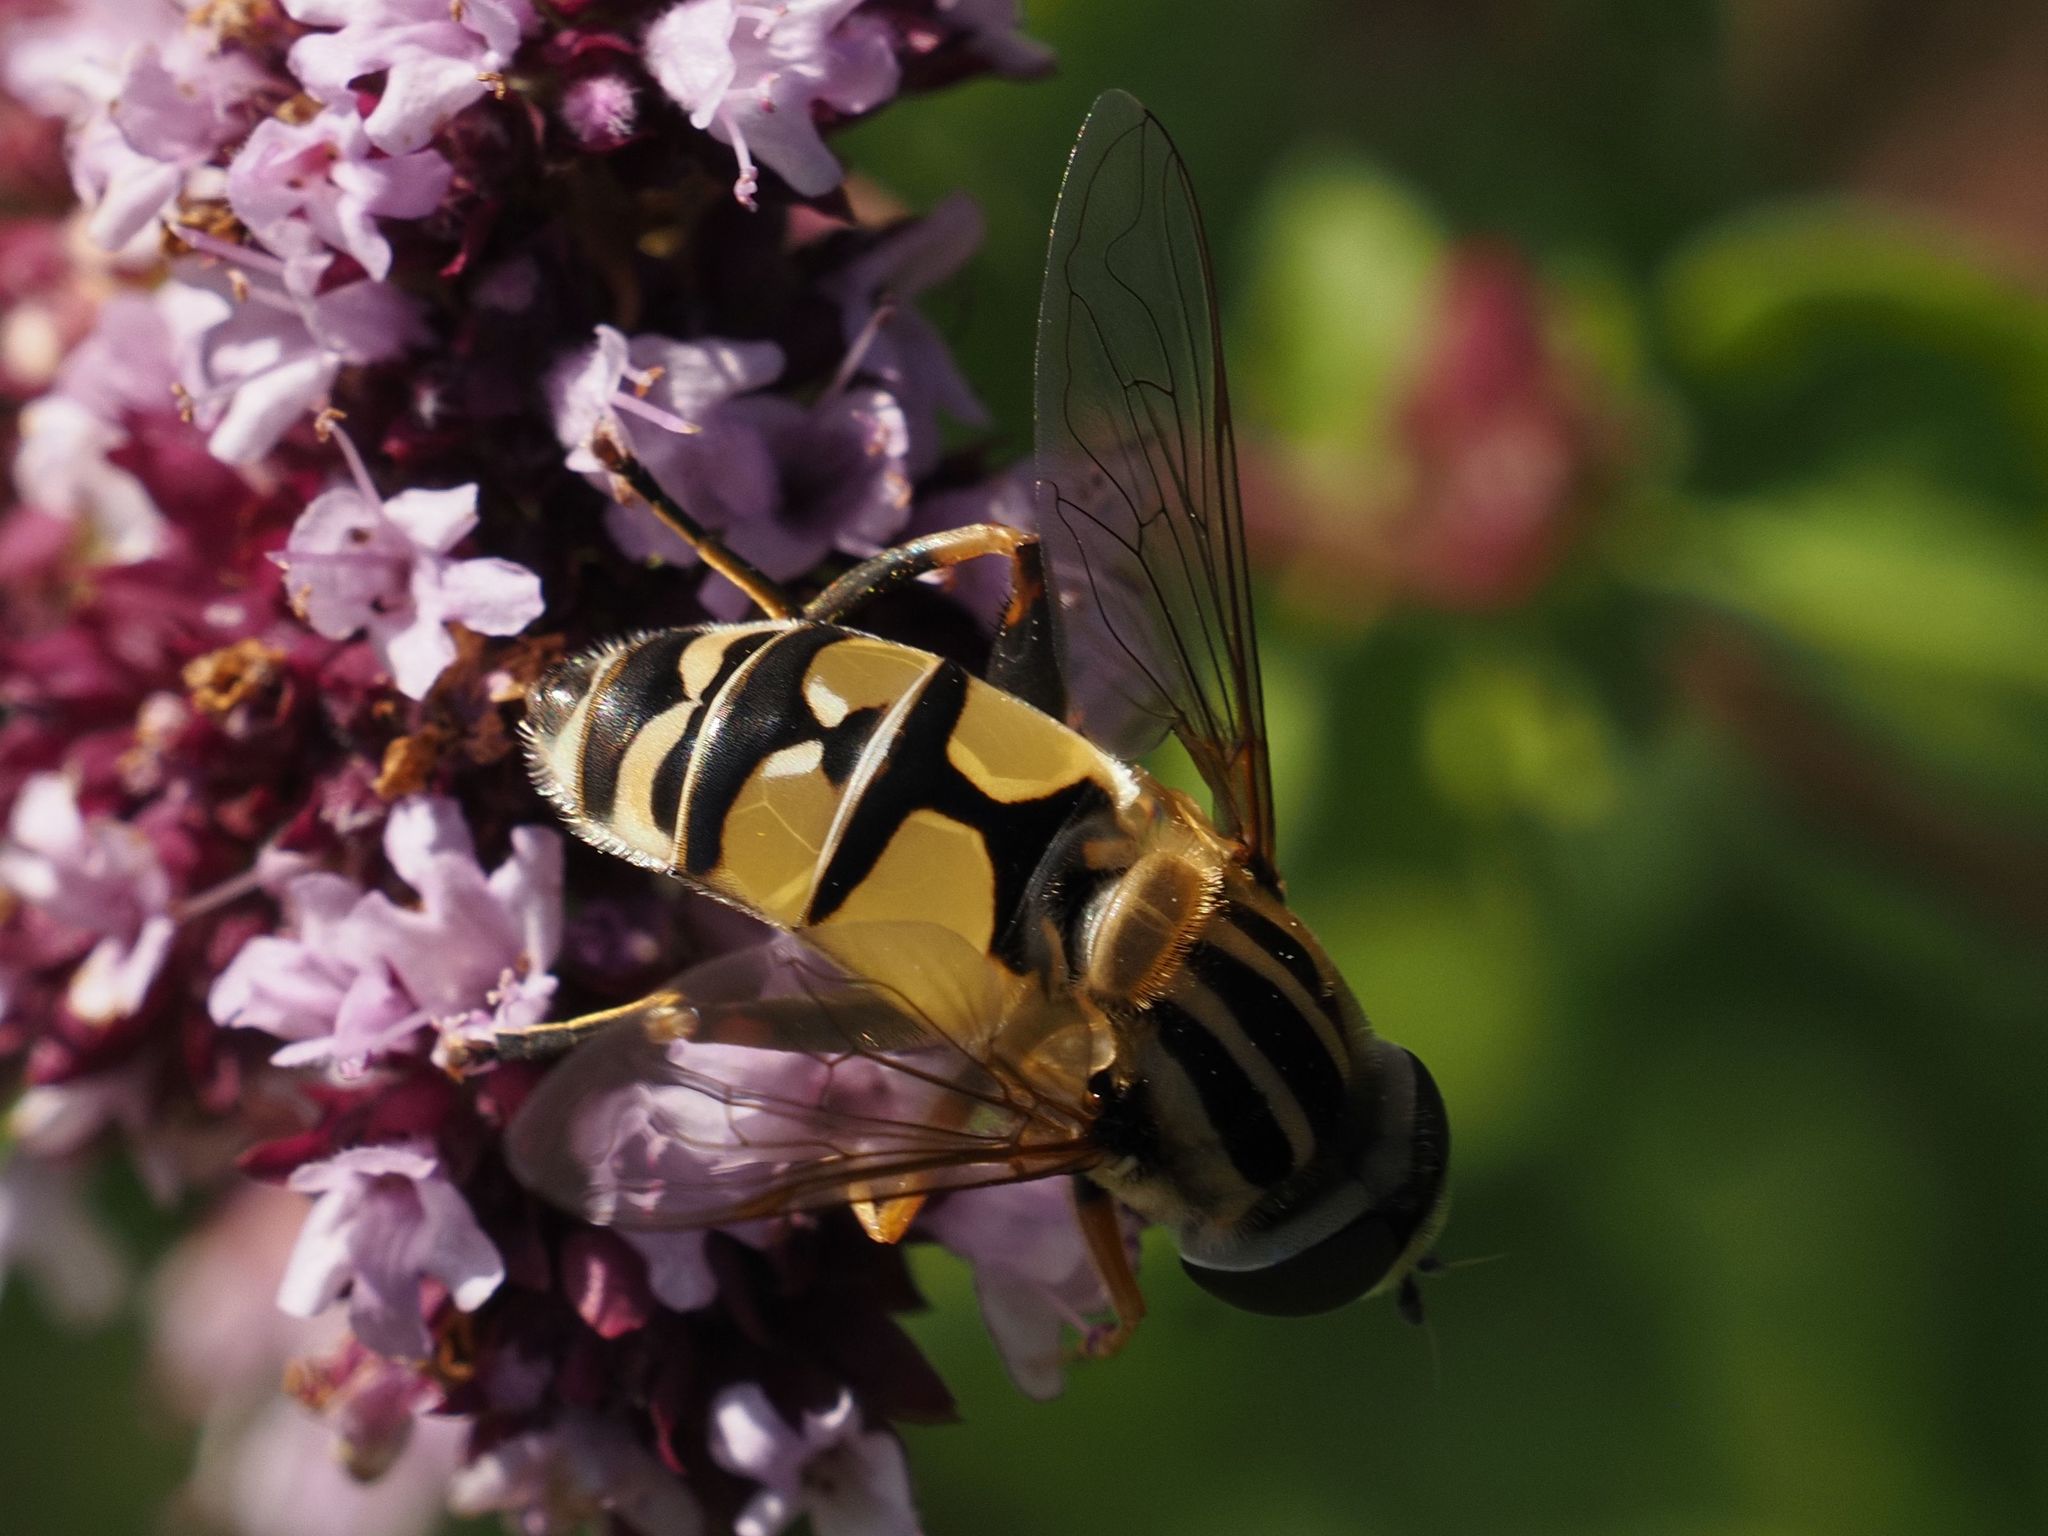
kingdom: Animalia
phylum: Arthropoda
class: Insecta
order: Diptera
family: Syrphidae
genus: Helophilus
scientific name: Helophilus trivittatus
